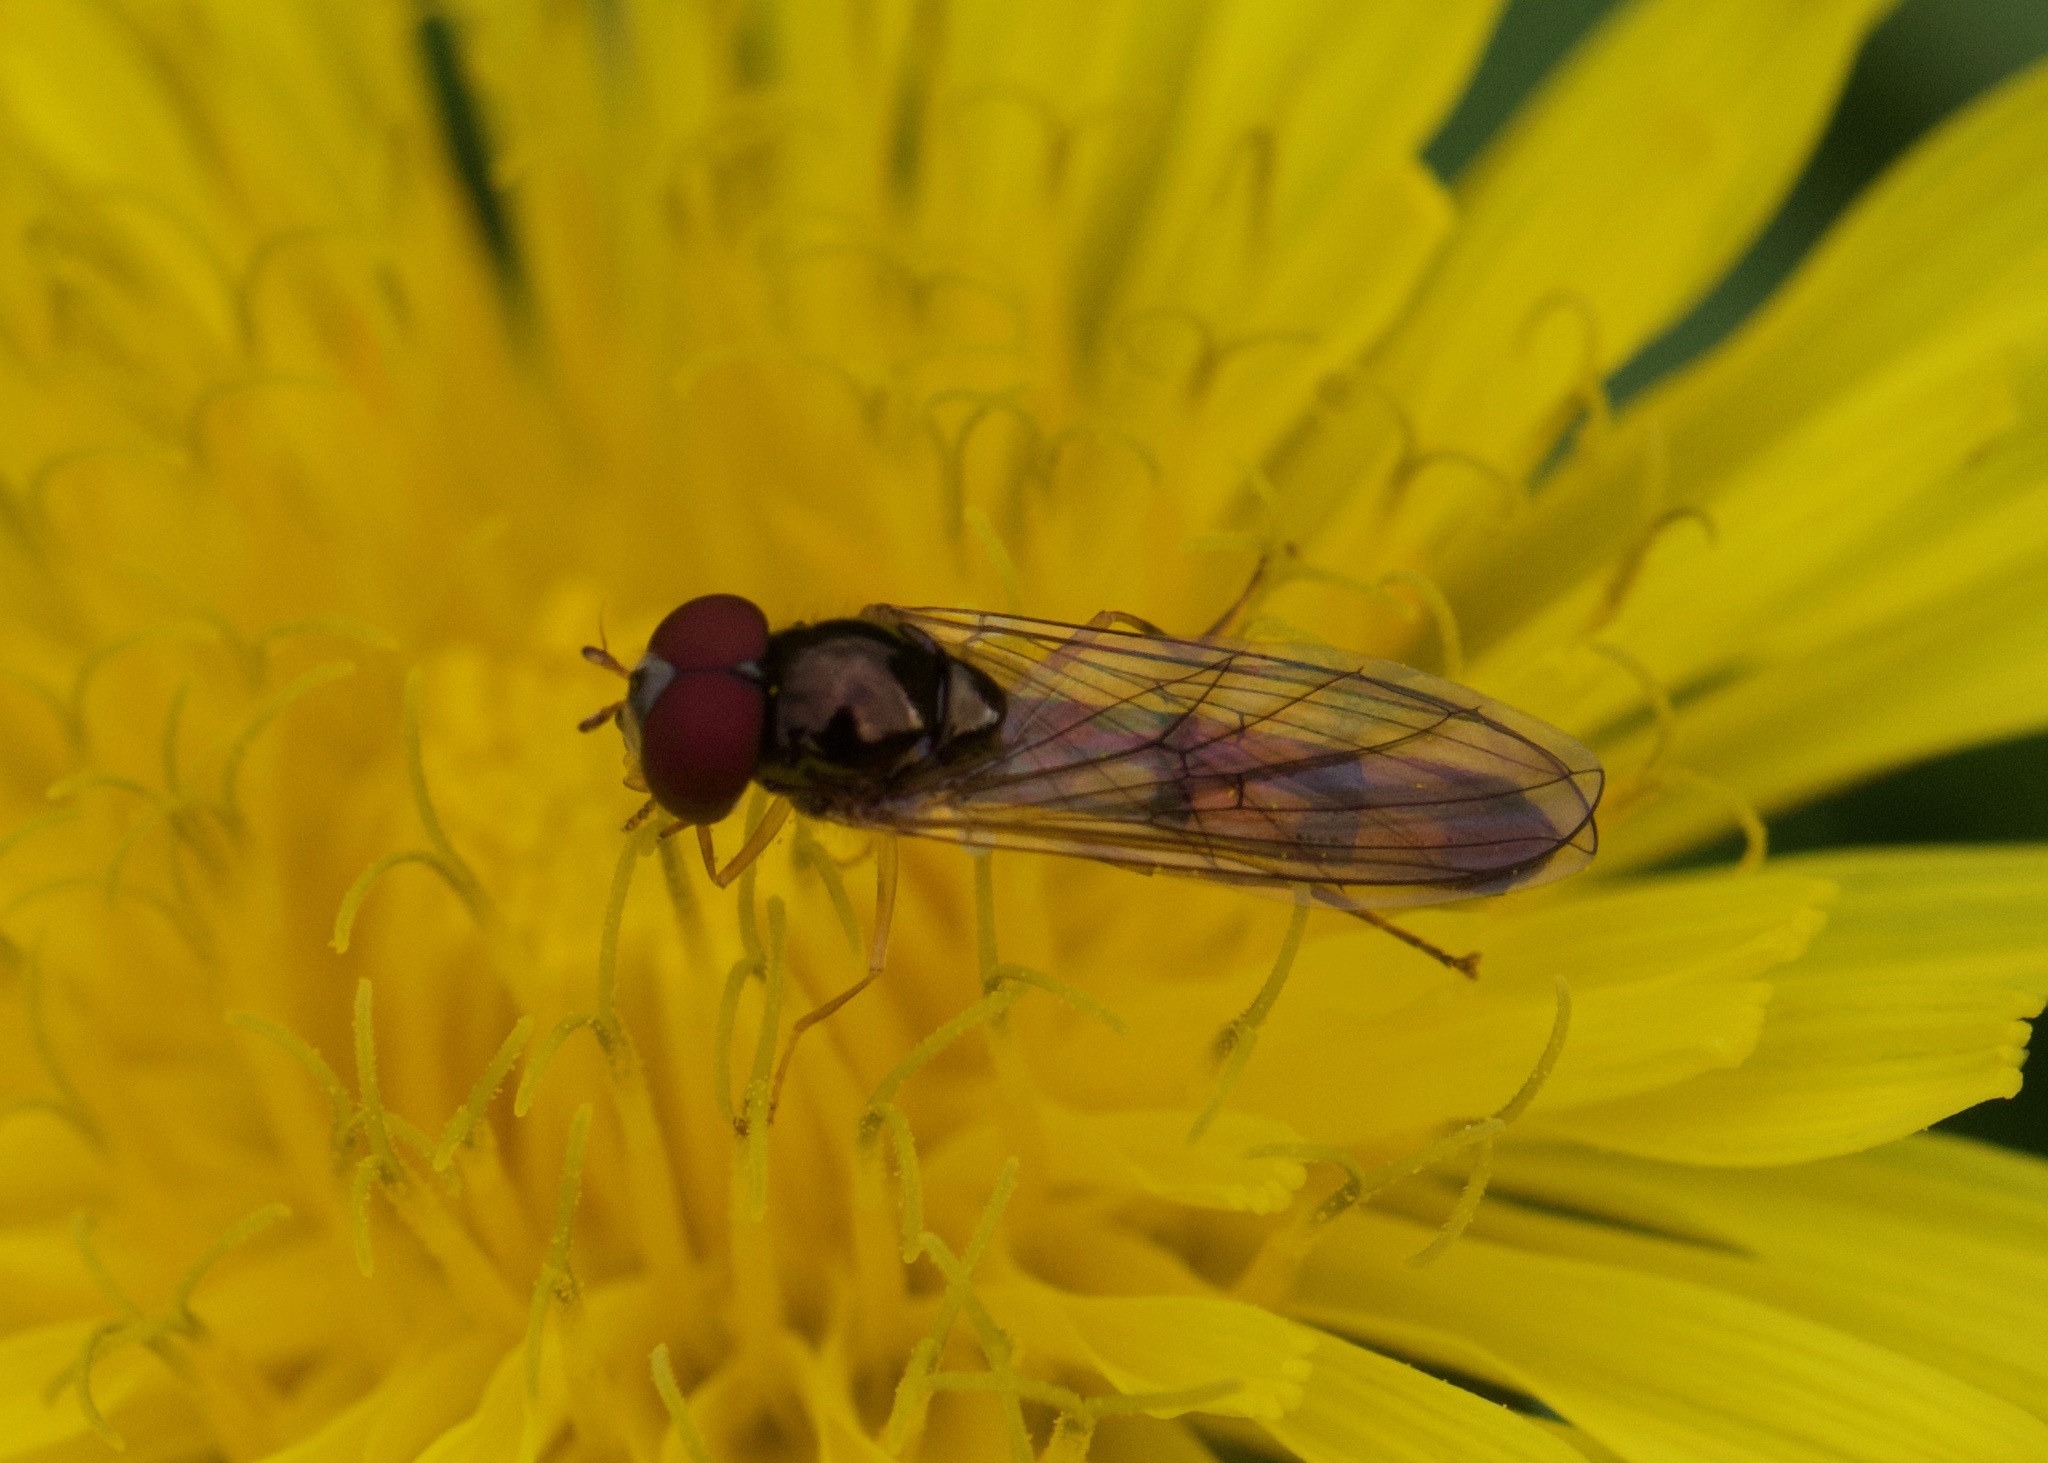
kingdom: Animalia
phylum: Arthropoda
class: Insecta
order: Diptera
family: Syrphidae
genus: Melanostoma
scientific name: Melanostoma scalare
